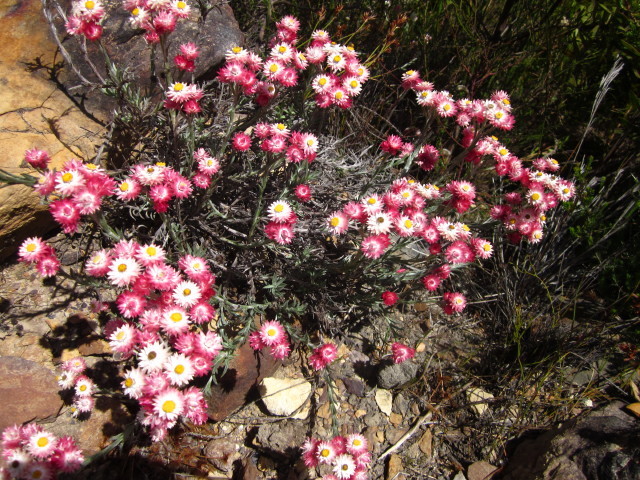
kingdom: Plantae
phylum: Tracheophyta
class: Magnoliopsida
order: Asterales
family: Asteraceae
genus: Achyranthemum
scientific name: Achyranthemum paniculatum
